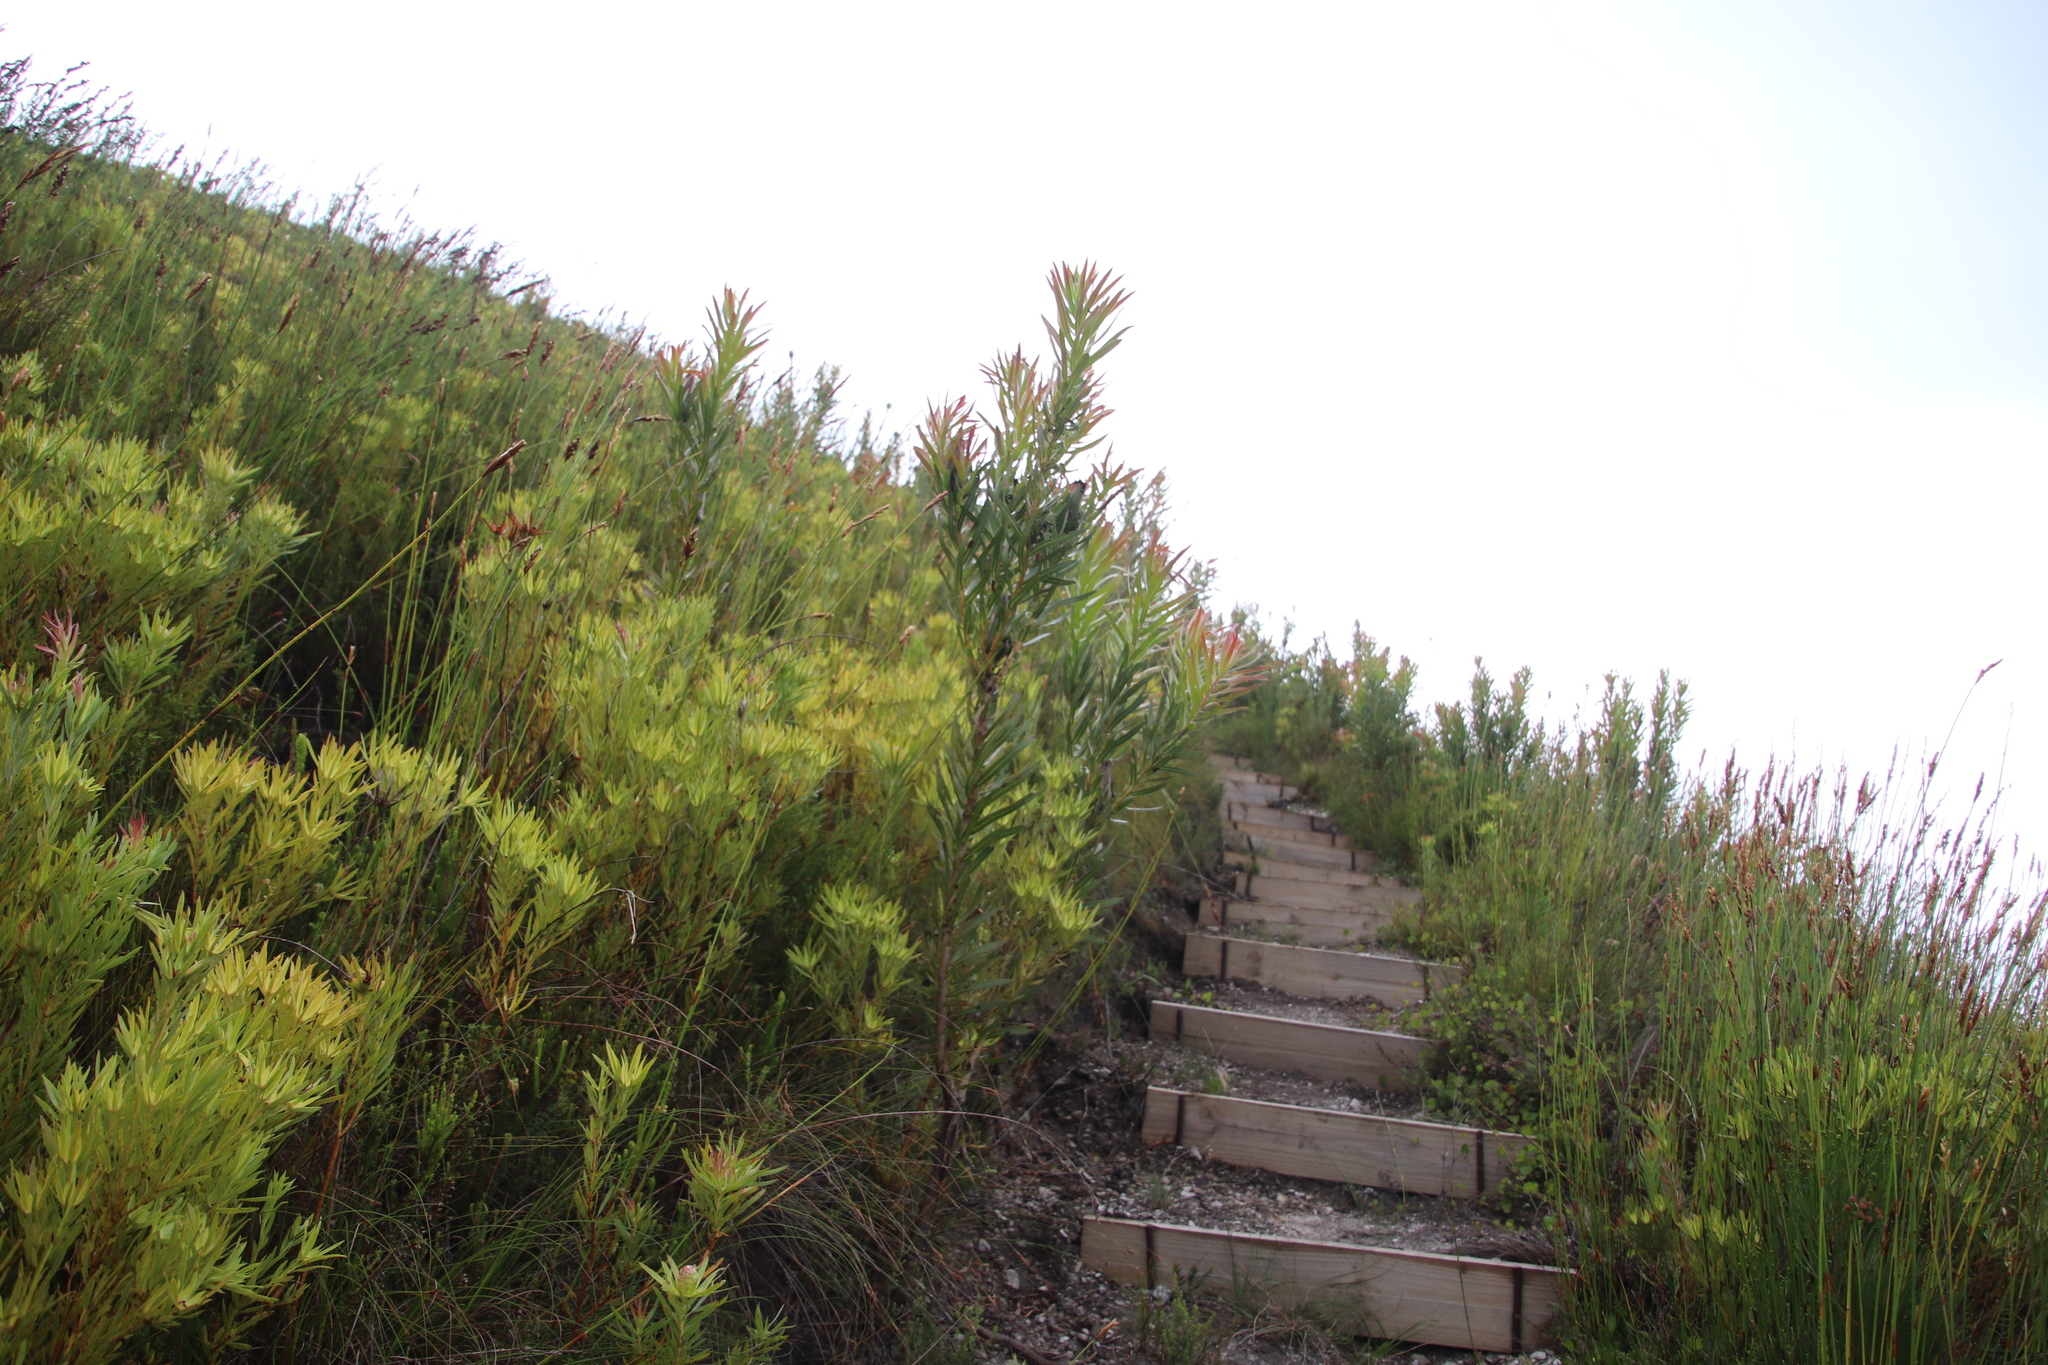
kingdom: Plantae
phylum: Tracheophyta
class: Magnoliopsida
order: Proteales
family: Proteaceae
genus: Protea
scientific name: Protea lepidocarpodendron
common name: Black-bearded protea
